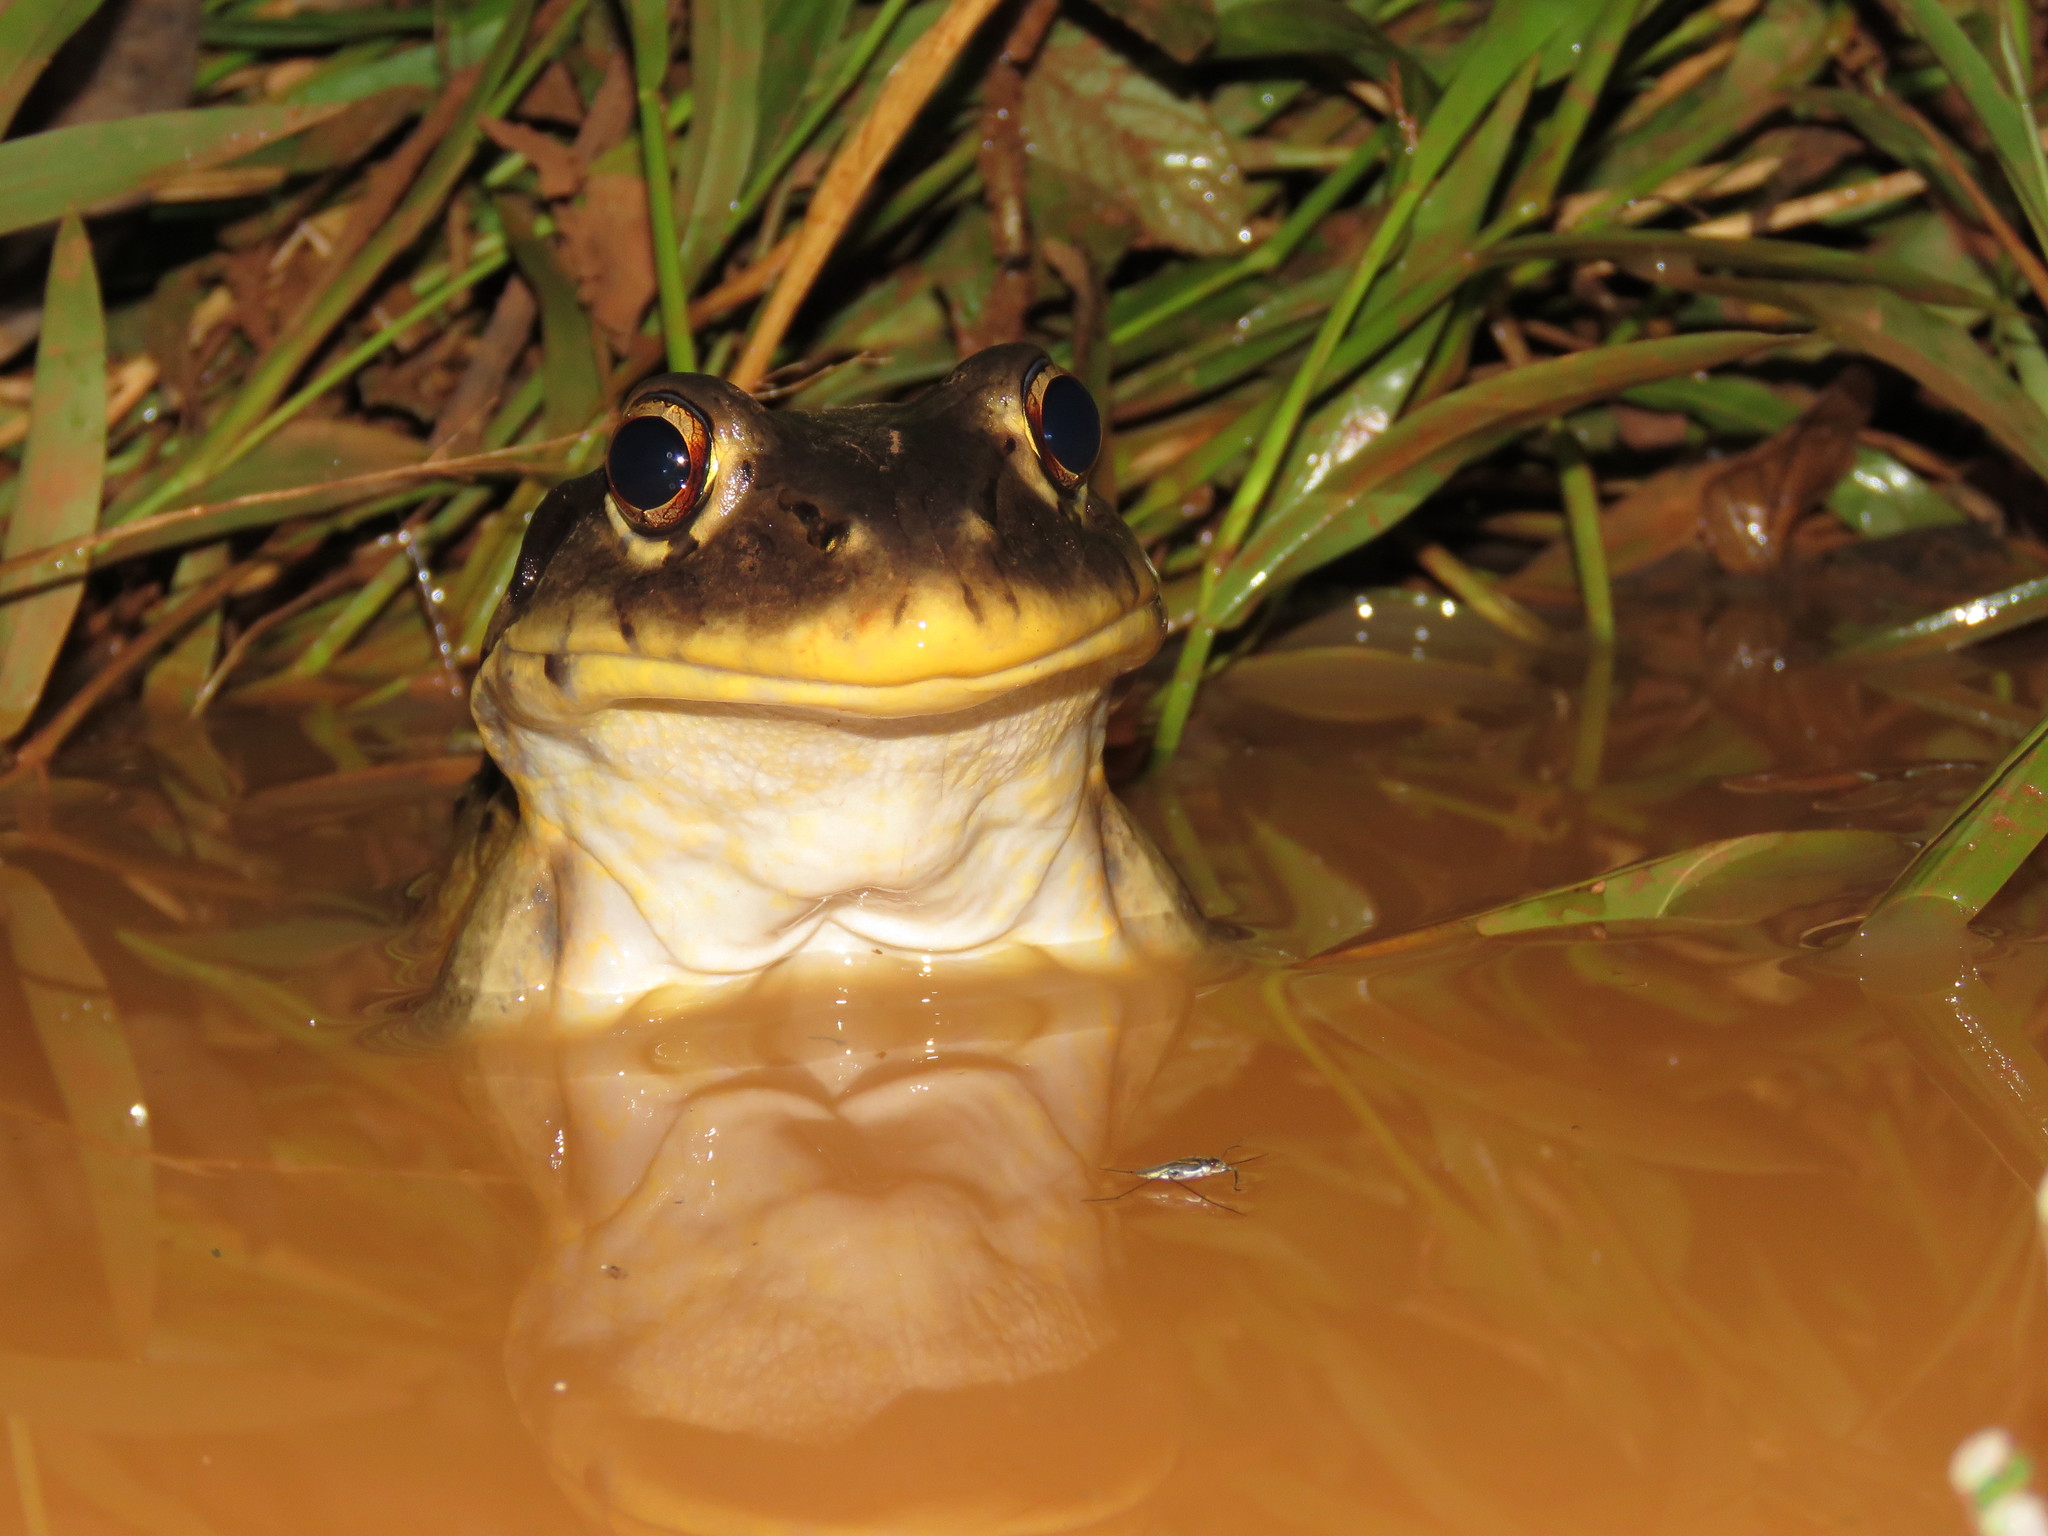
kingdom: Animalia
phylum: Chordata
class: Amphibia
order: Anura
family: Leptodactylidae
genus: Leptodactylus
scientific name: Leptodactylus vastus
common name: Northeastern pepper frog
